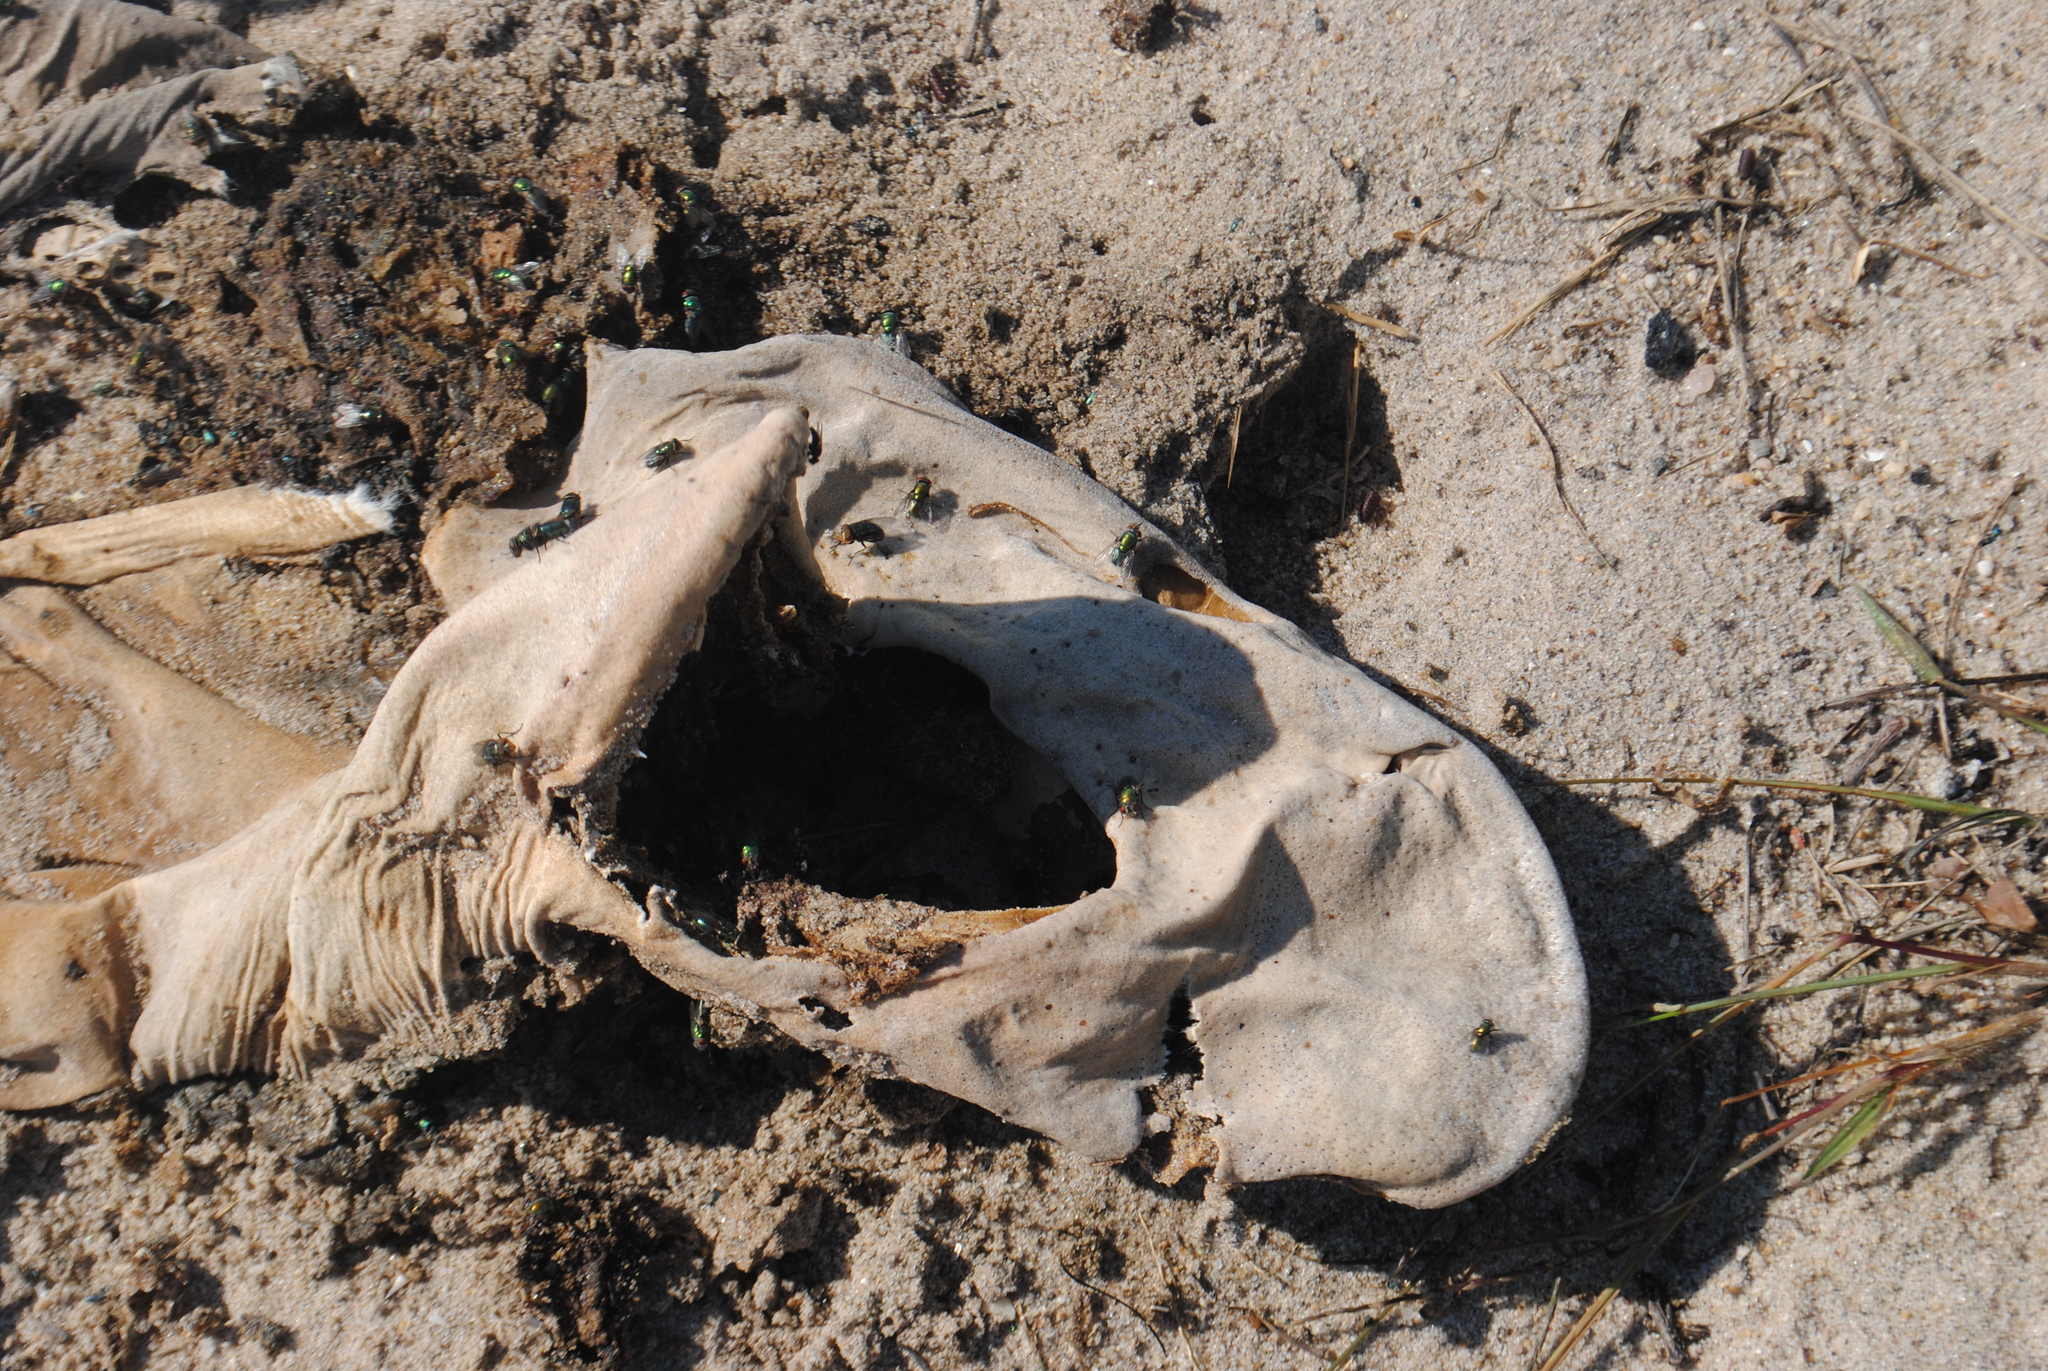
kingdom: Animalia
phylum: Chordata
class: Elasmobranchii
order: Carcharhiniformes
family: Carcharhinidae
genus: Carcharhinus
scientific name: Carcharhinus plumbeus
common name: Sandbar shark
